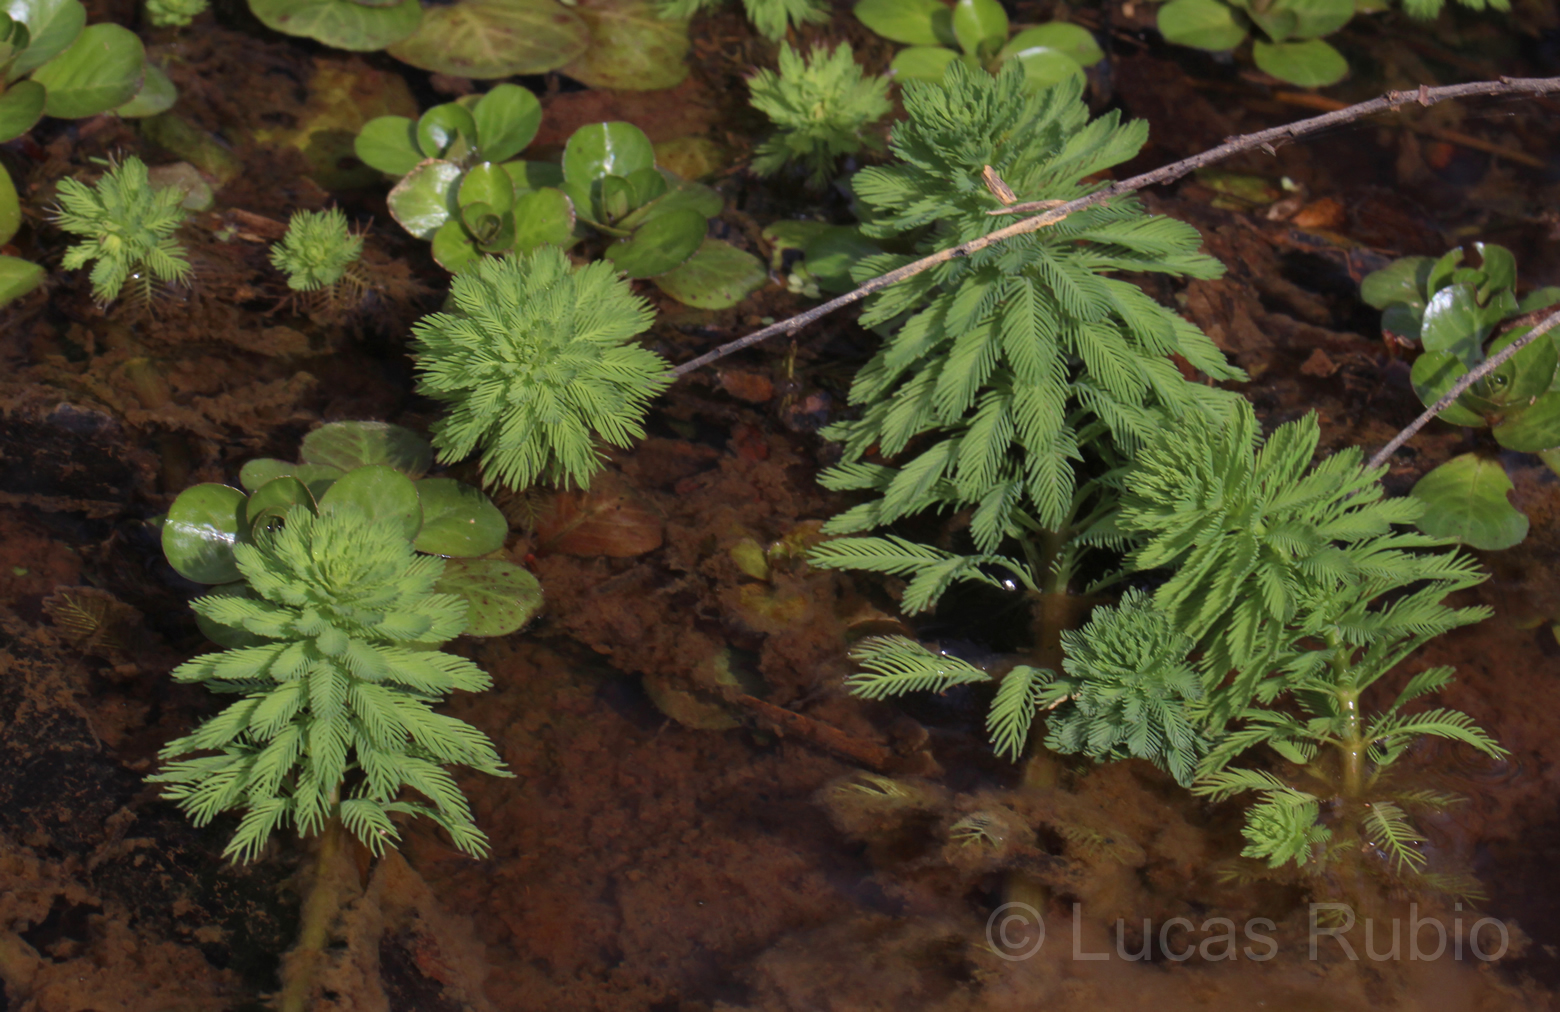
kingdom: Plantae
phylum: Tracheophyta
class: Magnoliopsida
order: Saxifragales
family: Haloragaceae
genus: Myriophyllum
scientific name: Myriophyllum aquaticum
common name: Parrot's feather
